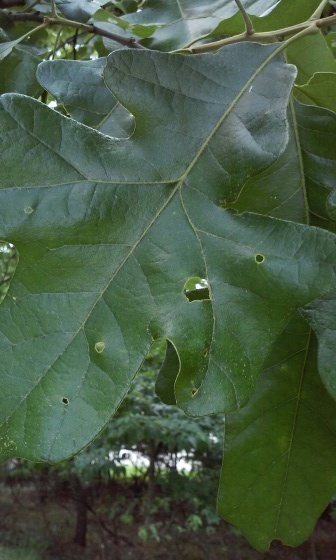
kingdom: Plantae
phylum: Tracheophyta
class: Magnoliopsida
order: Fagales
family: Fagaceae
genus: Quercus
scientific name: Quercus stellata
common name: Post oak
